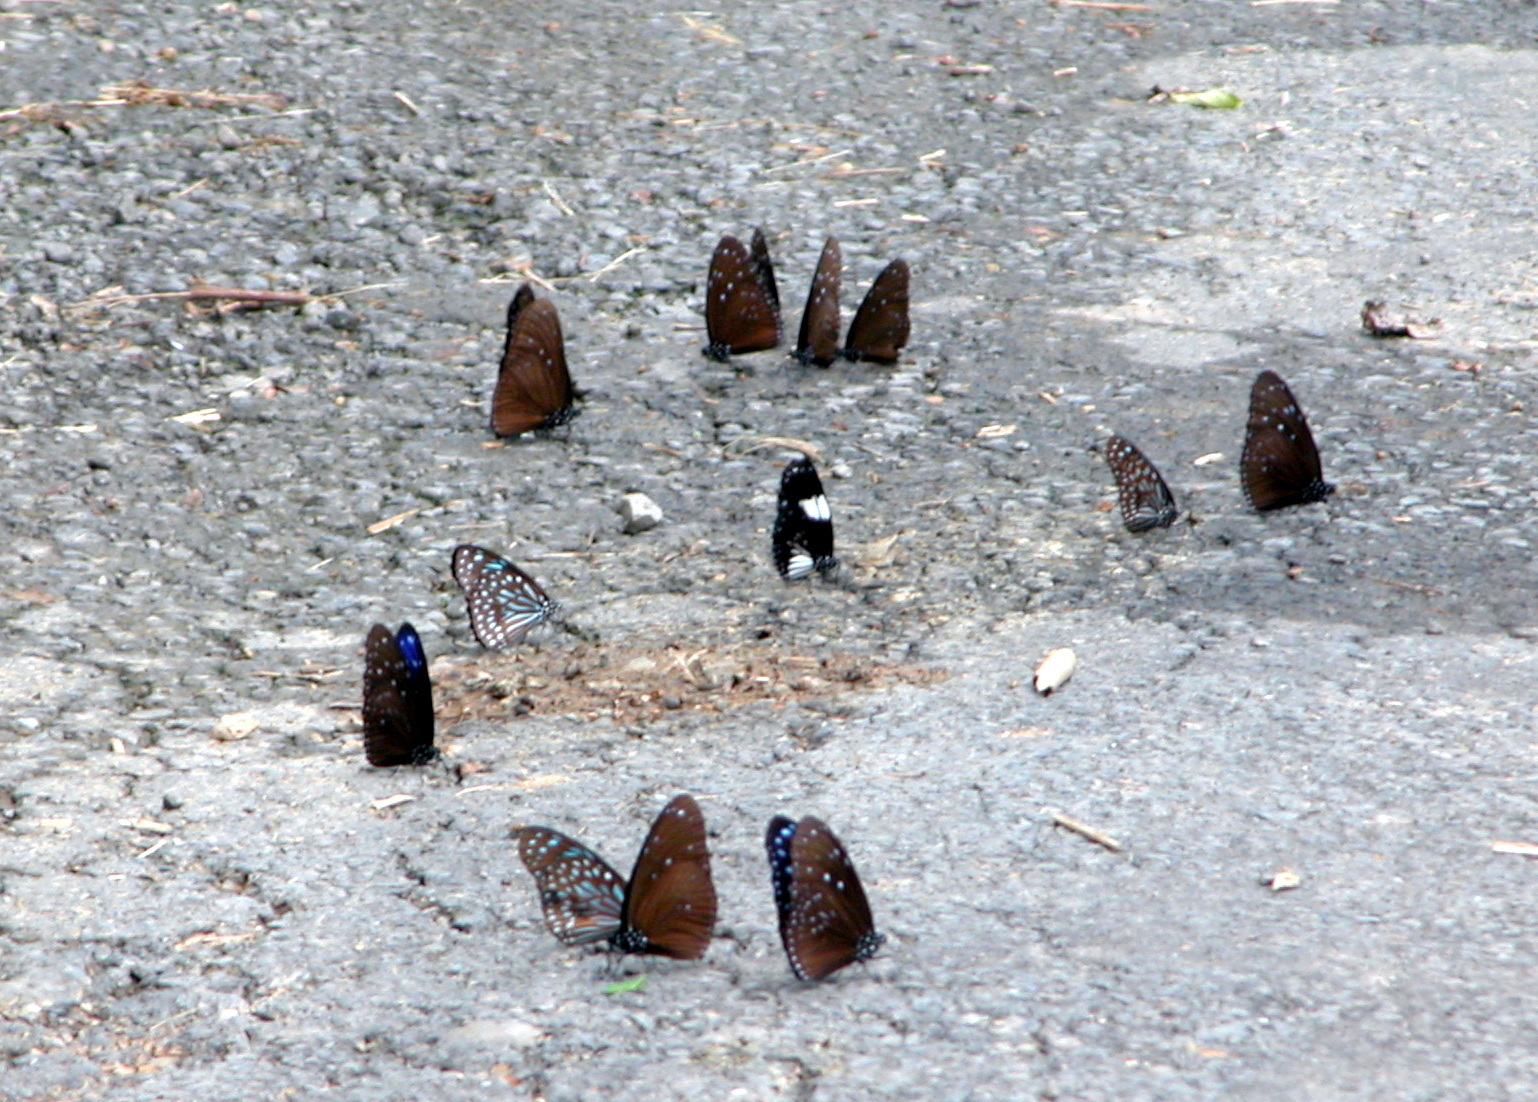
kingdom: Animalia
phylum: Arthropoda
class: Insecta
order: Lepidoptera
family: Nymphalidae
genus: Euploea
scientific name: Euploea radamanthus
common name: Magpie crow butterfly
